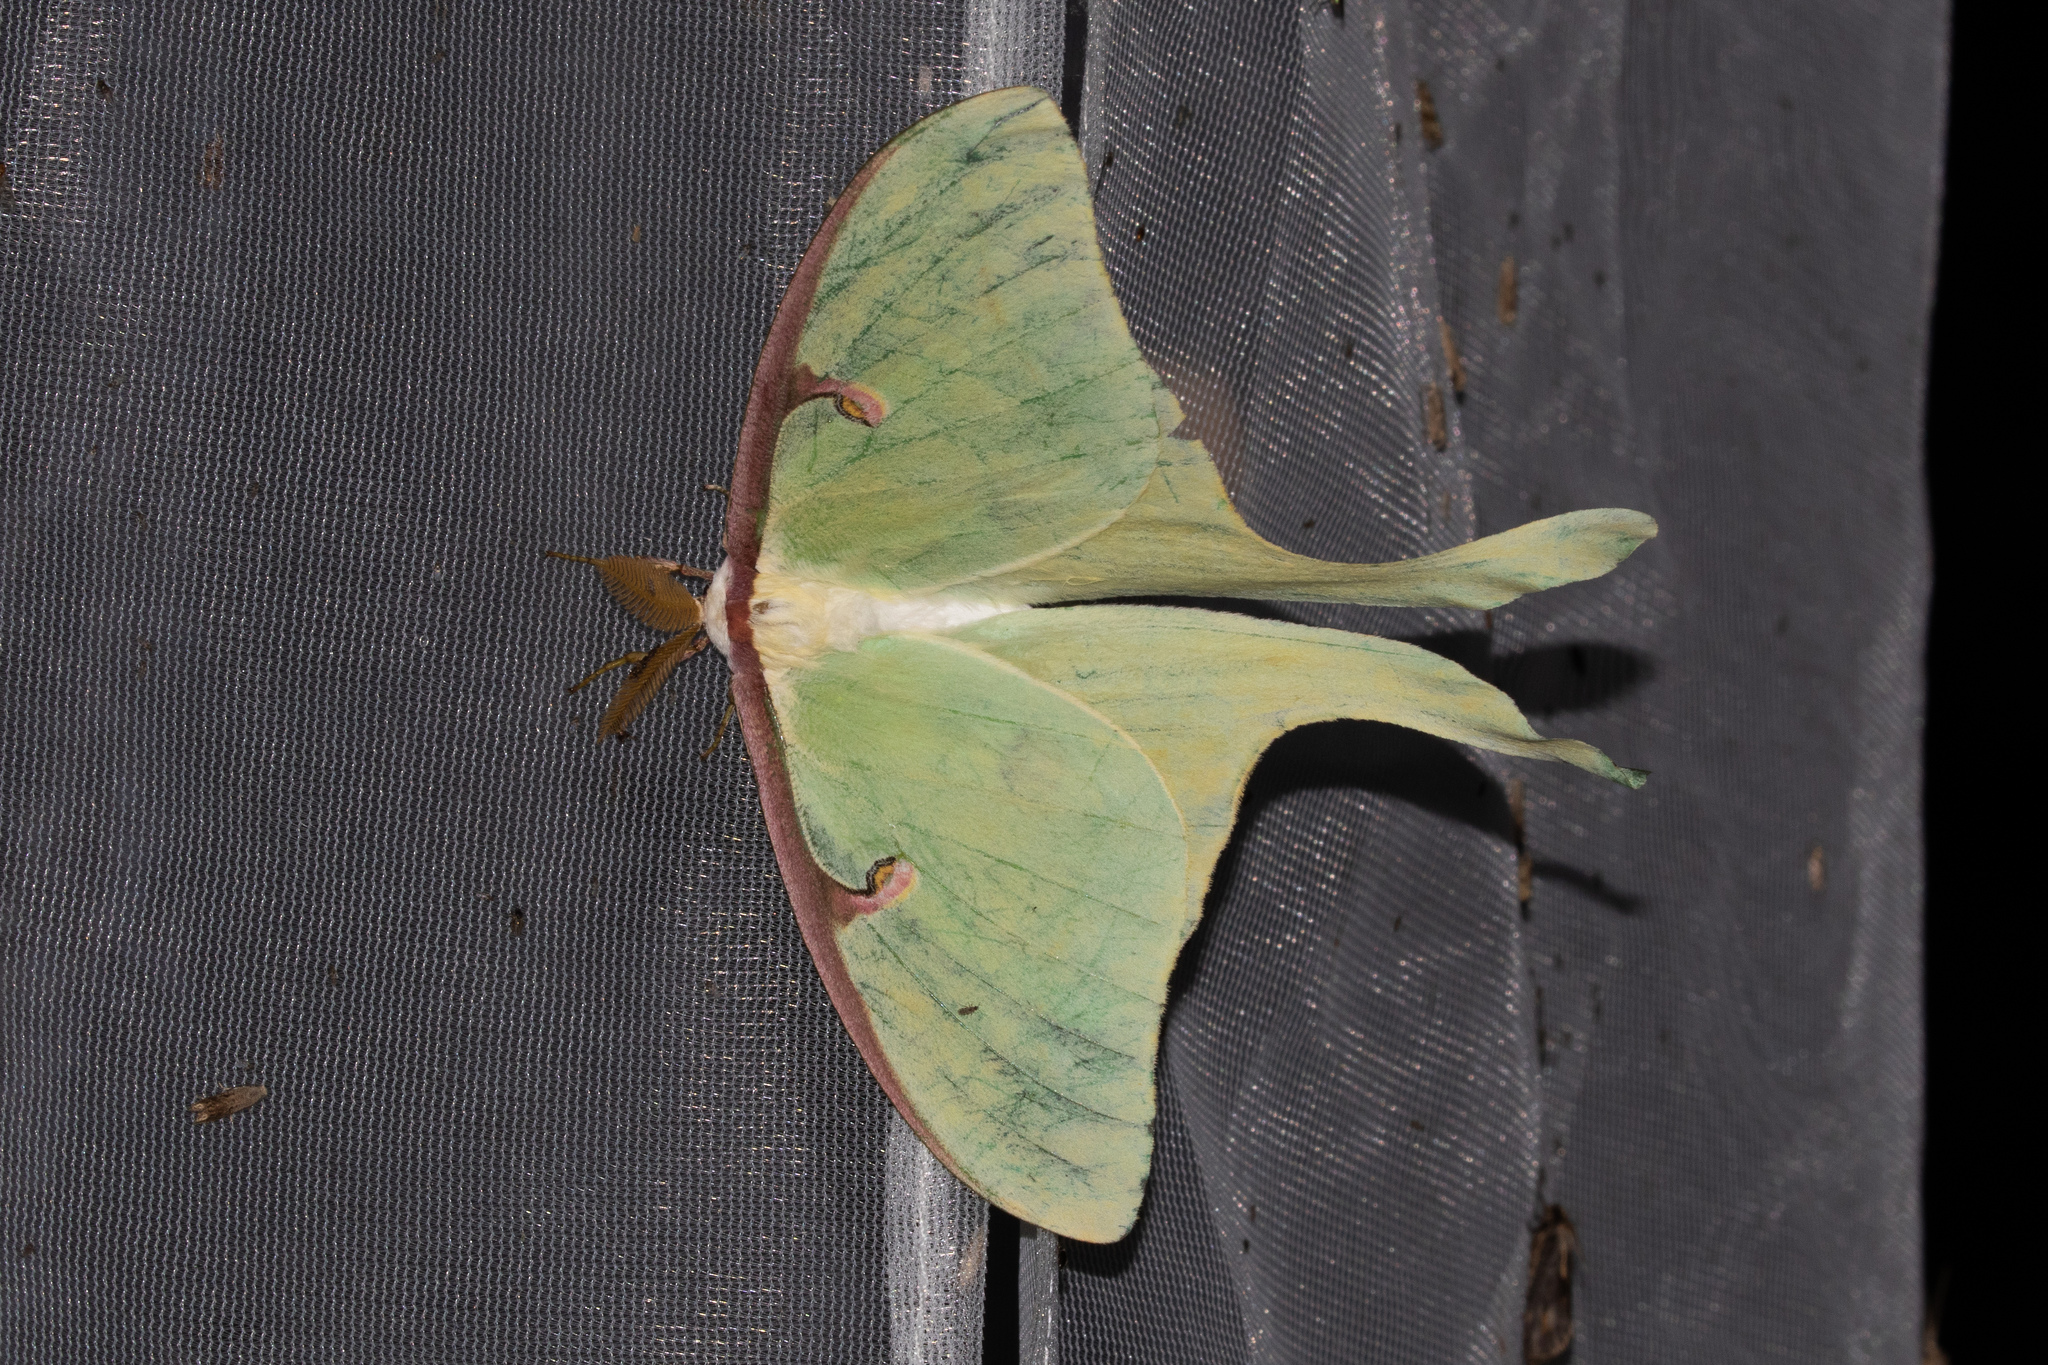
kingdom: Animalia
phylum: Arthropoda
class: Insecta
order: Lepidoptera
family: Saturniidae
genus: Actias
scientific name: Actias luna
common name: Luna moth
